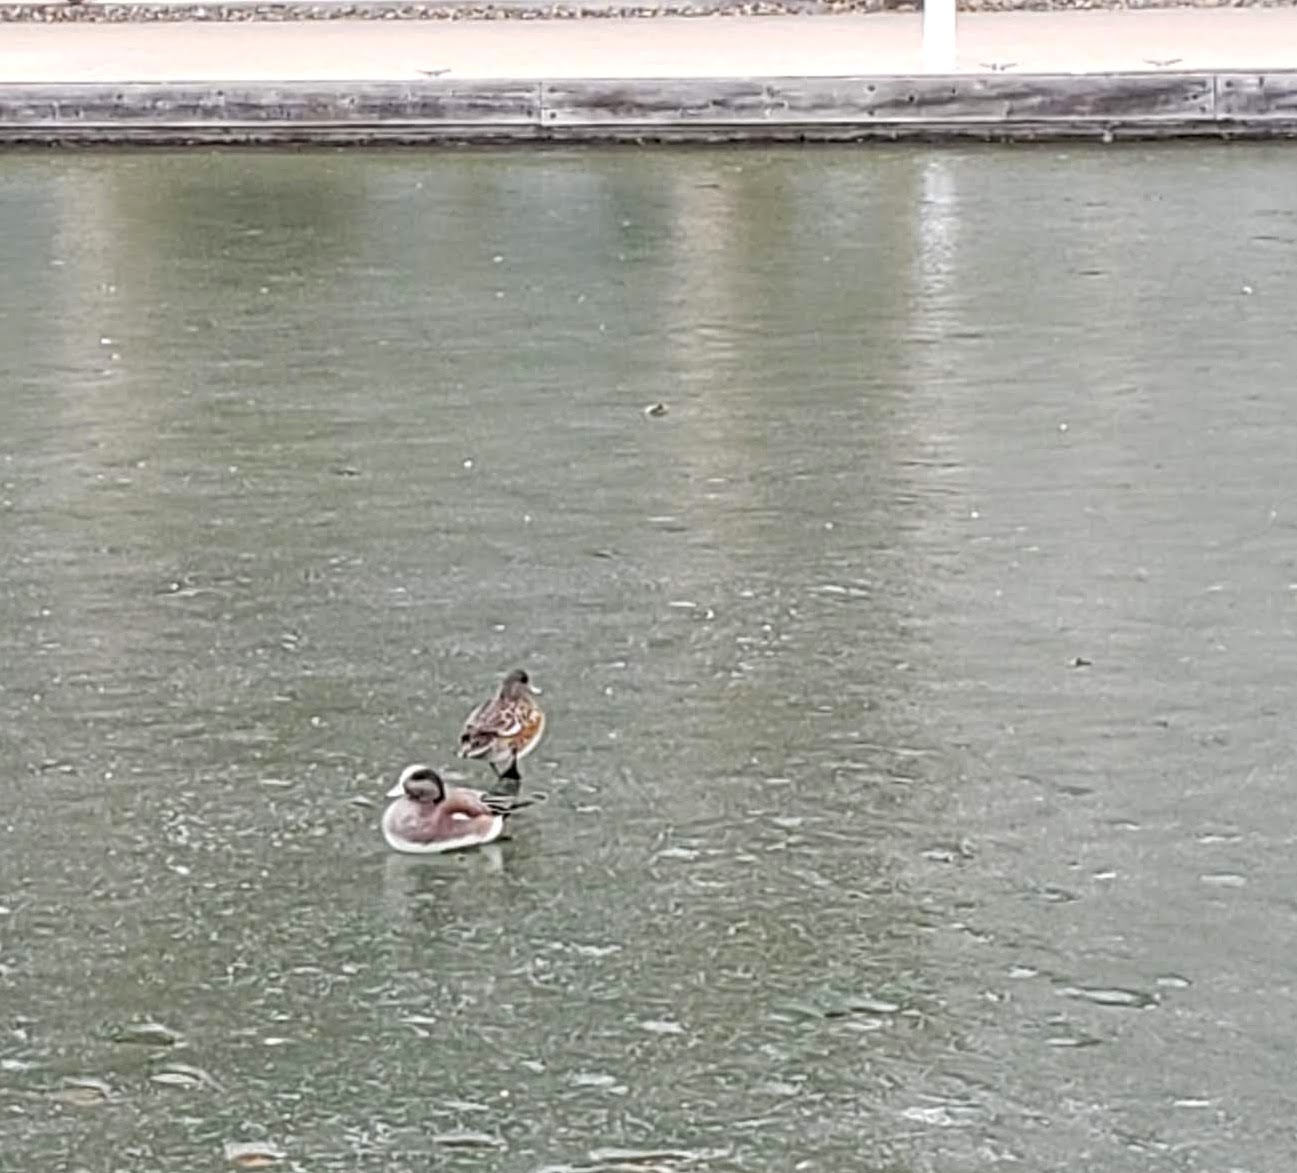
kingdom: Animalia
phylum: Chordata
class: Aves
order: Anseriformes
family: Anatidae
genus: Mareca
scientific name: Mareca americana
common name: American wigeon
